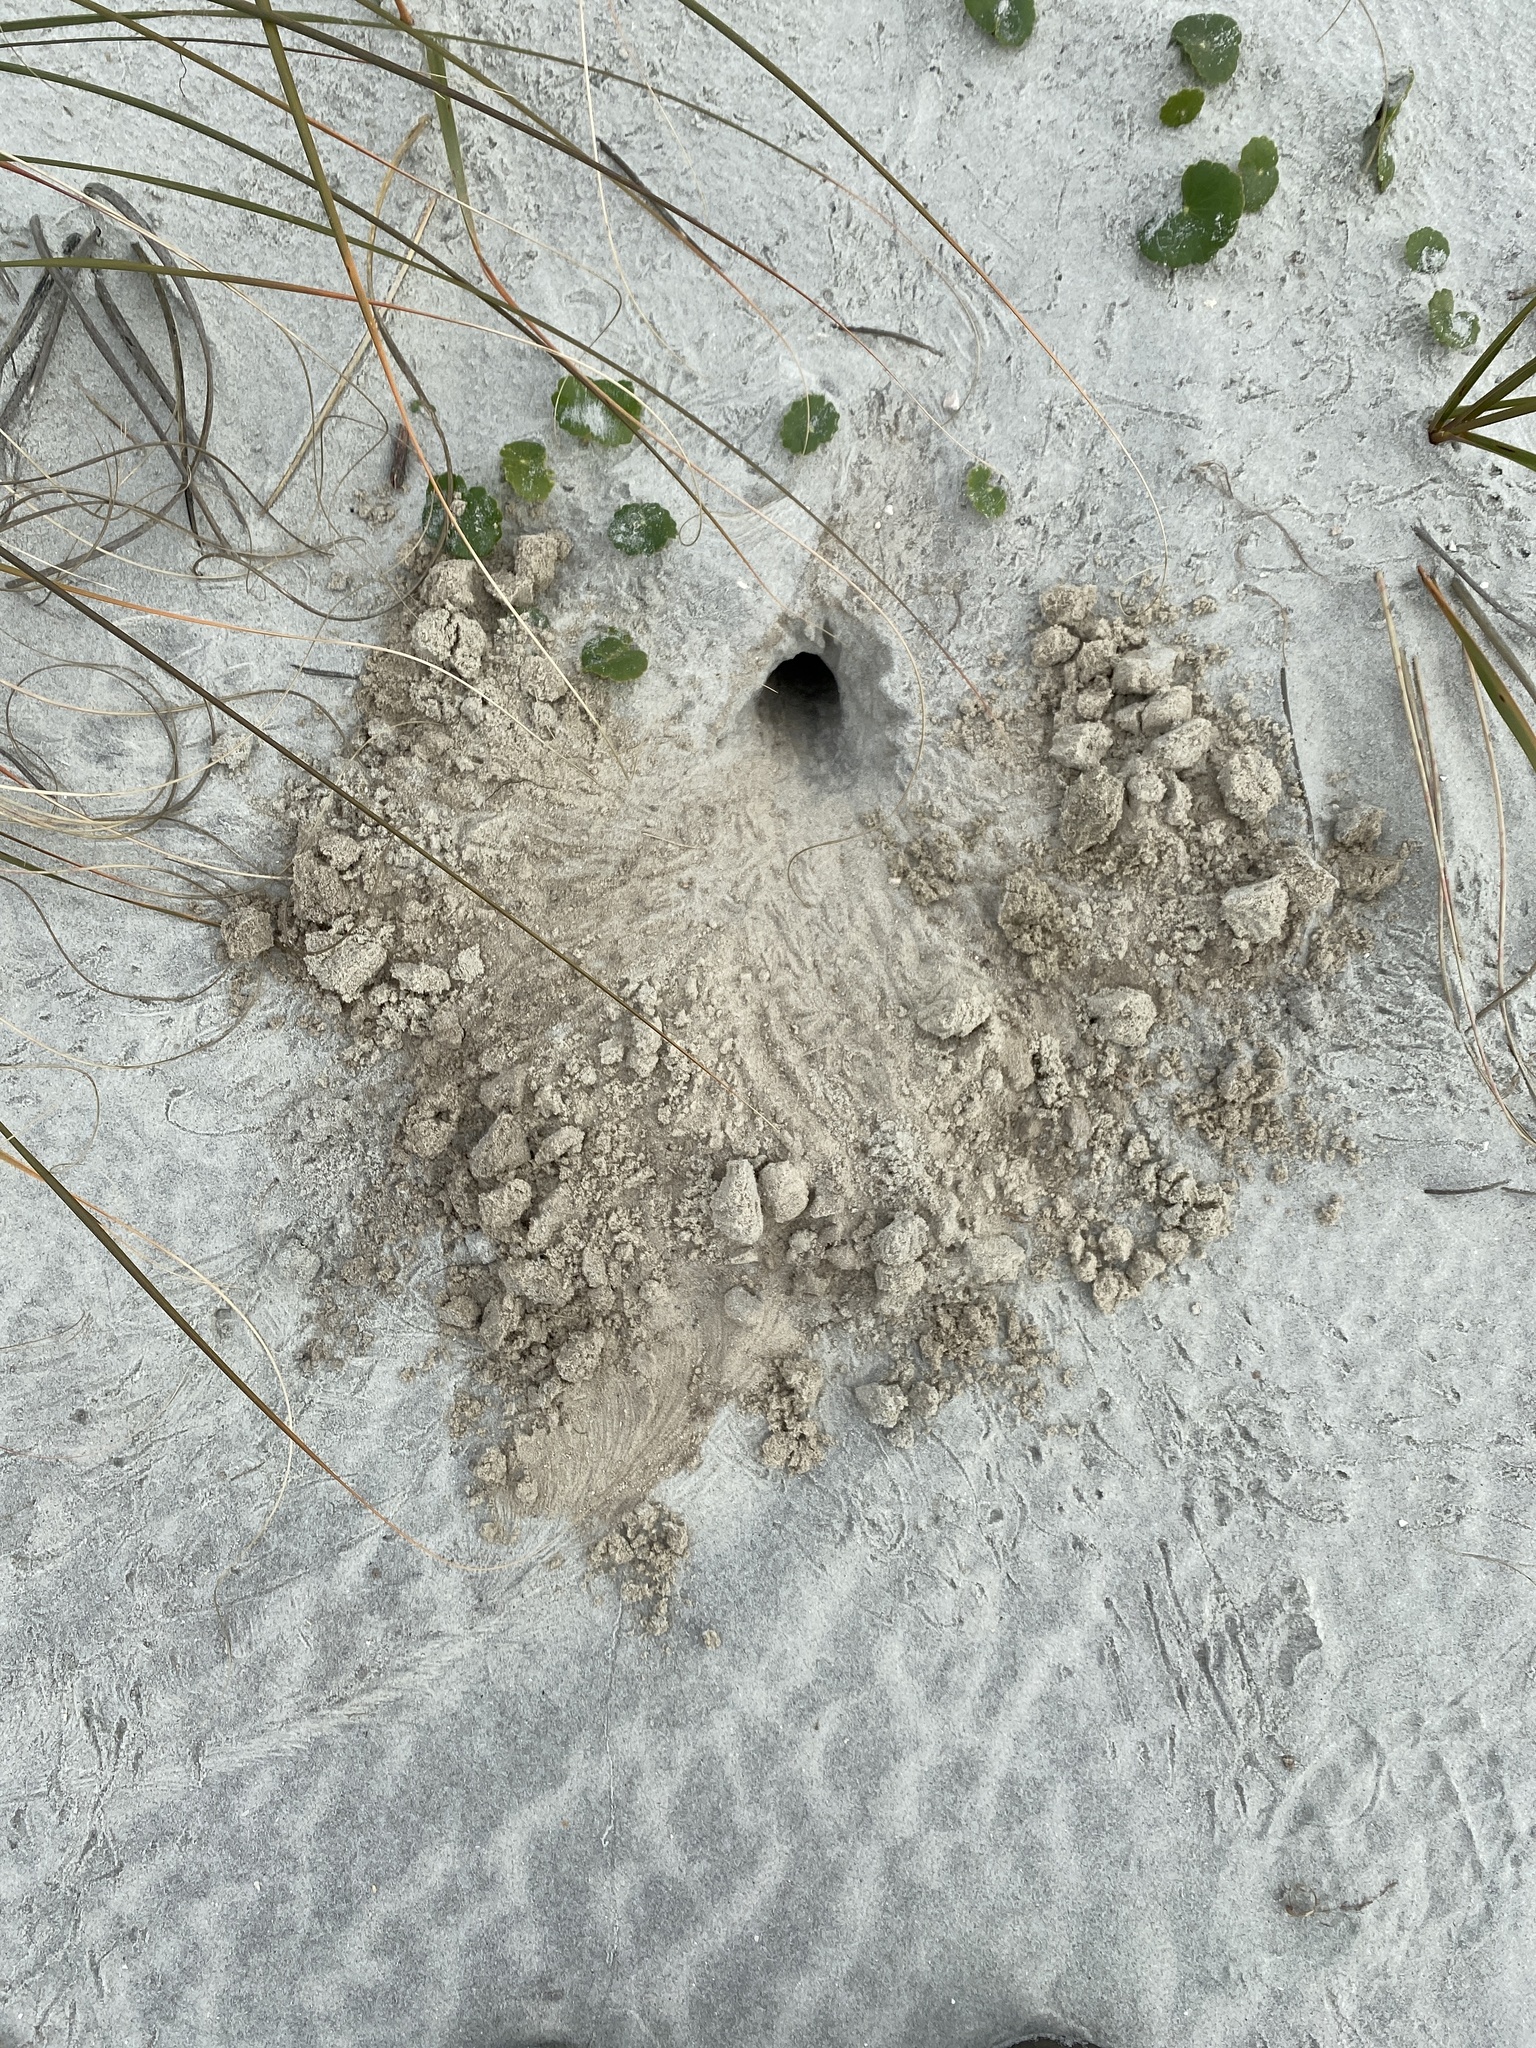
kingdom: Animalia
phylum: Arthropoda
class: Malacostraca
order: Decapoda
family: Ocypodidae
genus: Ocypode
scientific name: Ocypode quadrata
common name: Ghost crab
